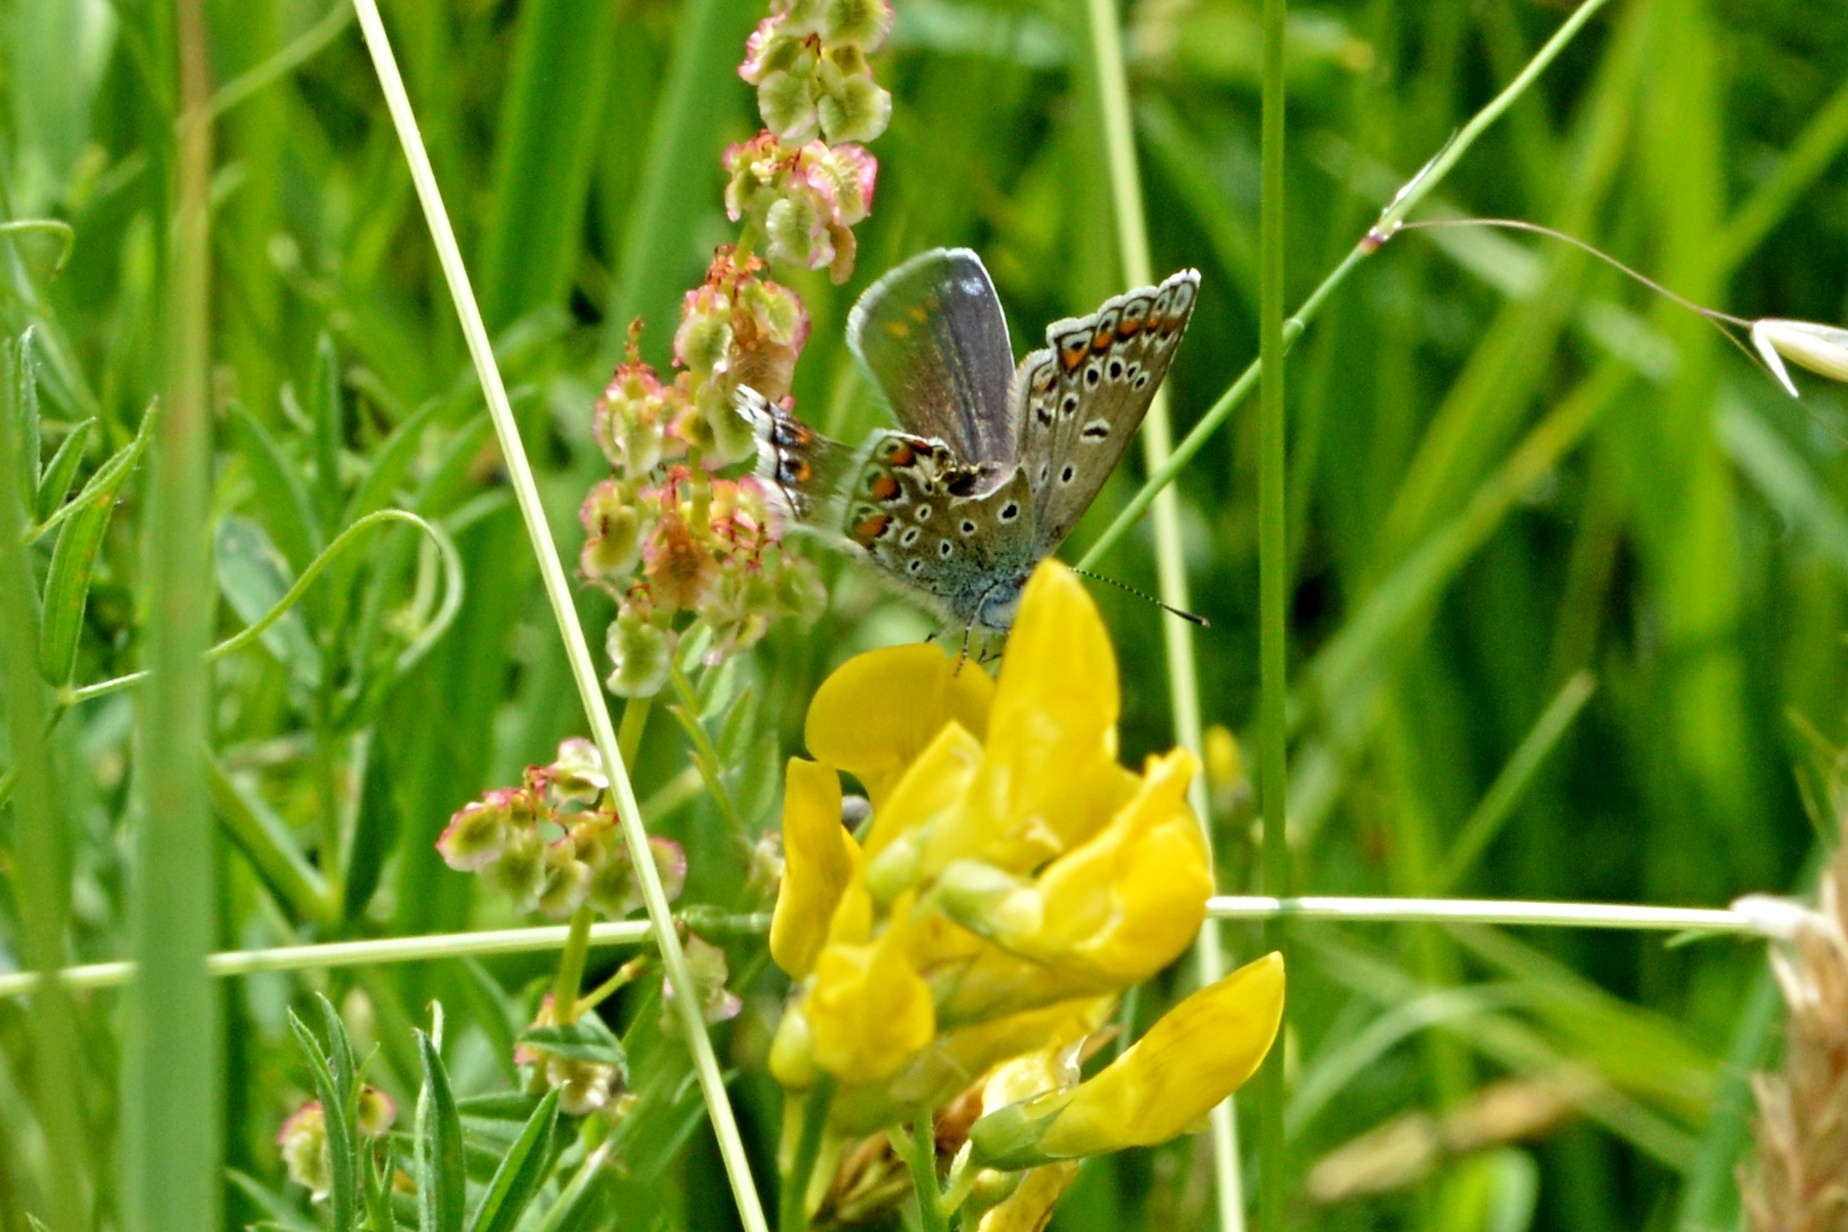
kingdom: Animalia
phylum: Arthropoda
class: Insecta
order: Lepidoptera
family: Lycaenidae
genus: Polyommatus
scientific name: Polyommatus icarus
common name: Common blue
